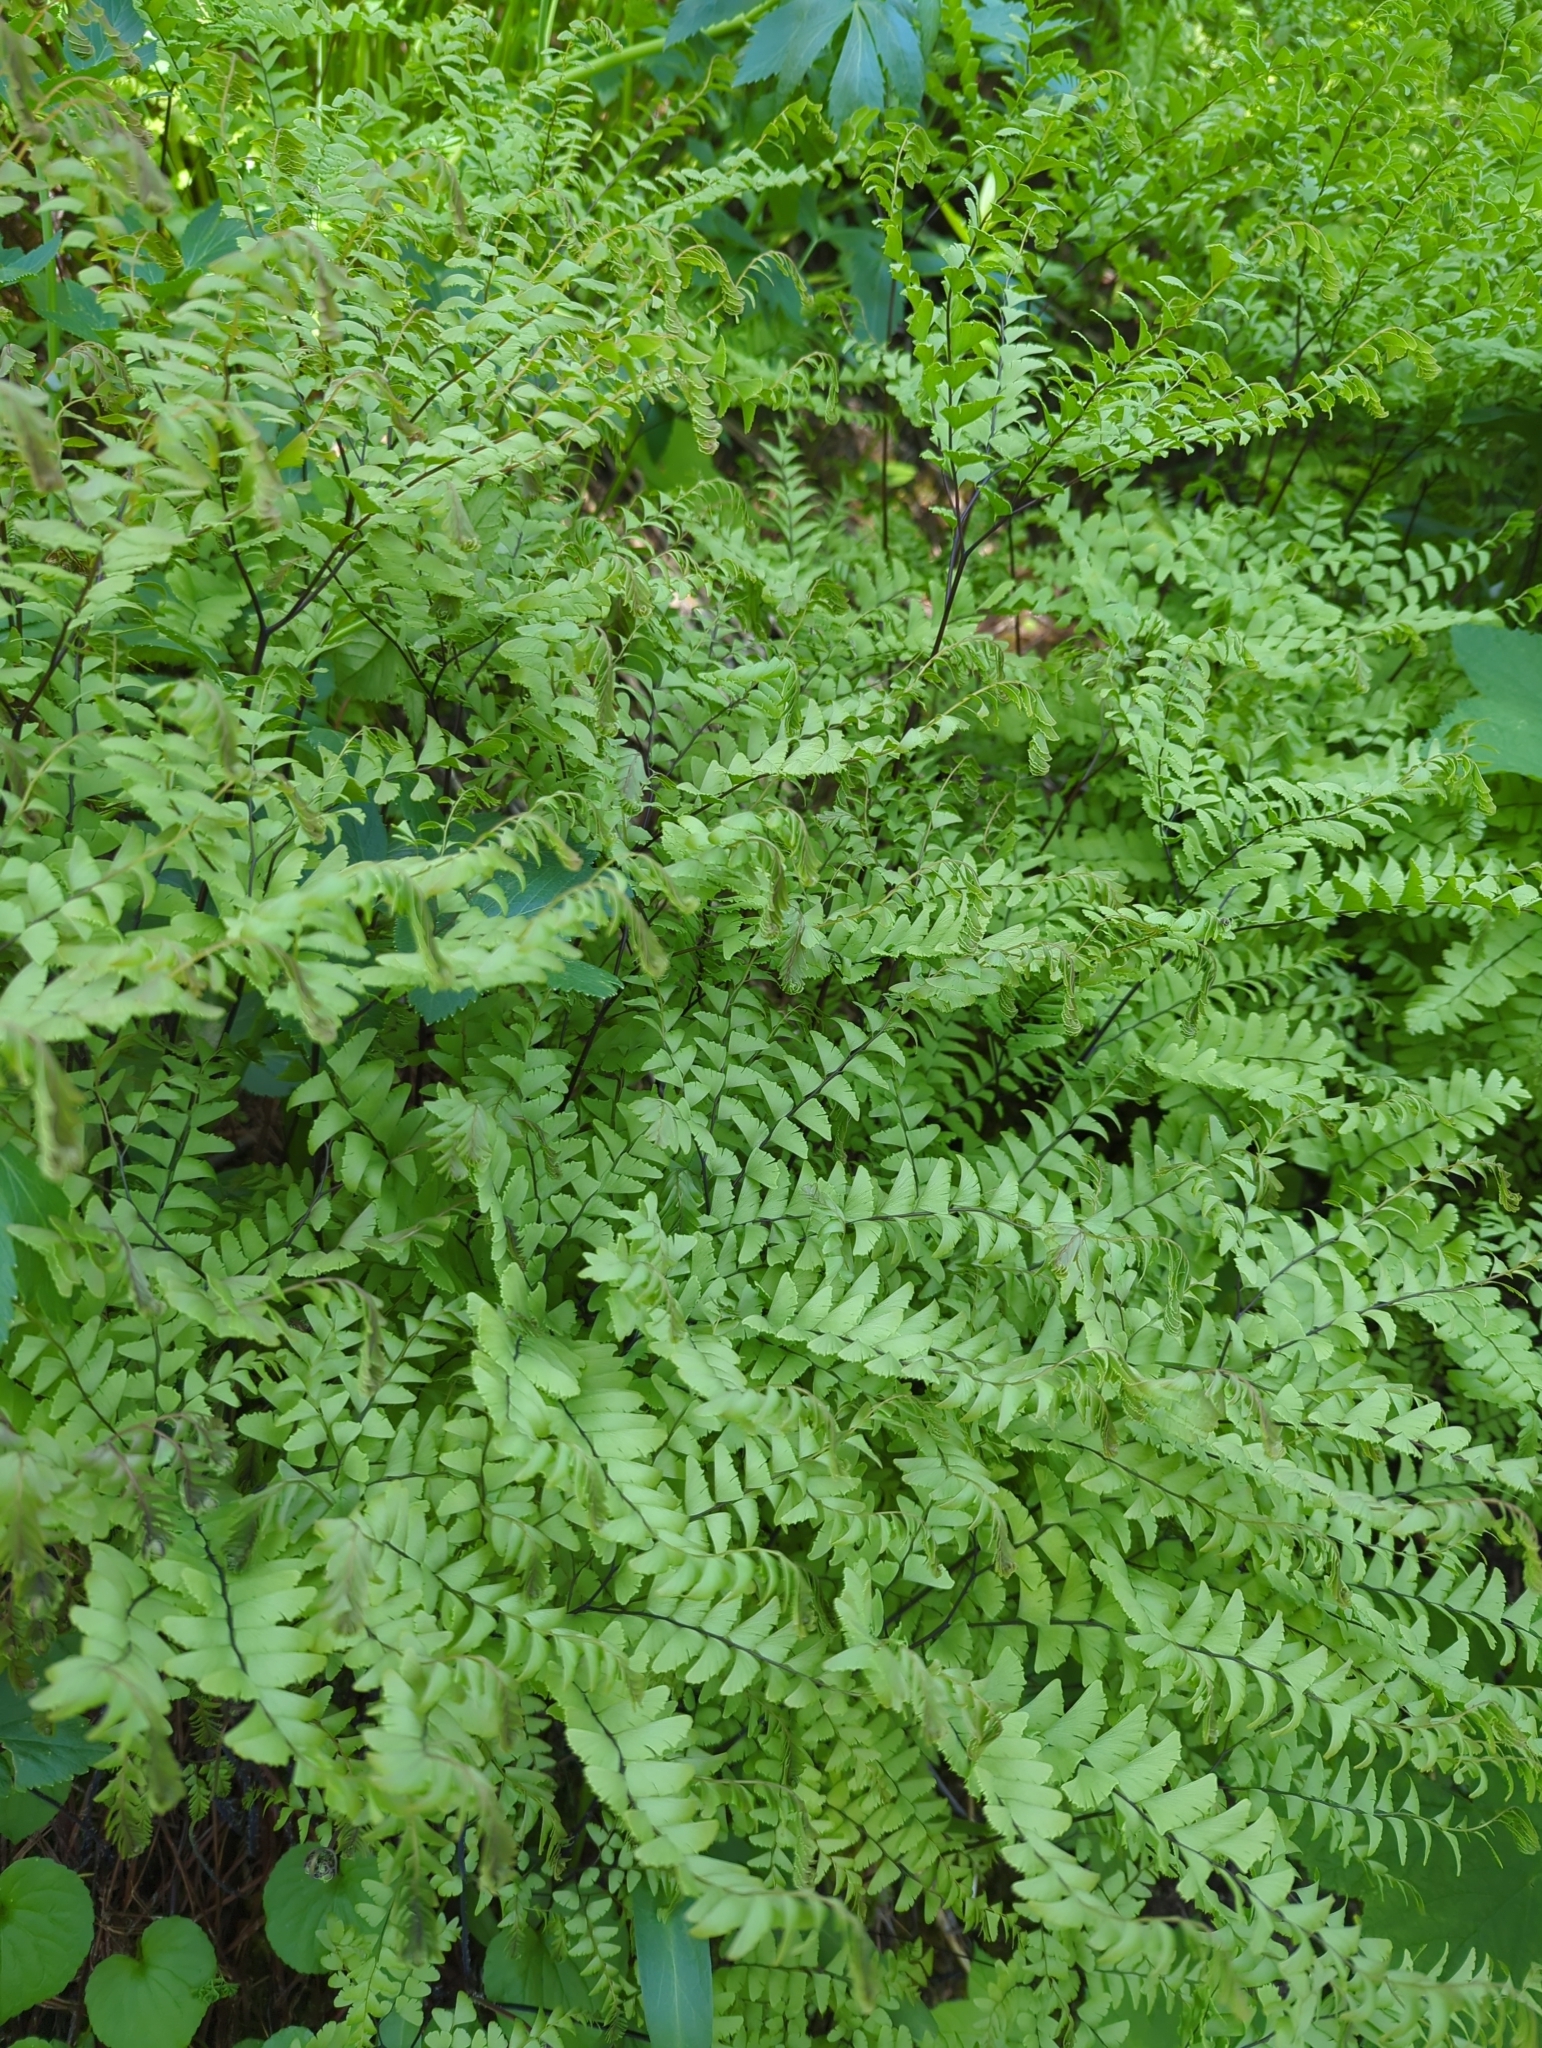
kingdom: Plantae
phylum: Tracheophyta
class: Polypodiopsida
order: Polypodiales
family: Pteridaceae
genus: Adiantum
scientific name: Adiantum aleuticum
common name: Aleutian maidenhair fern
